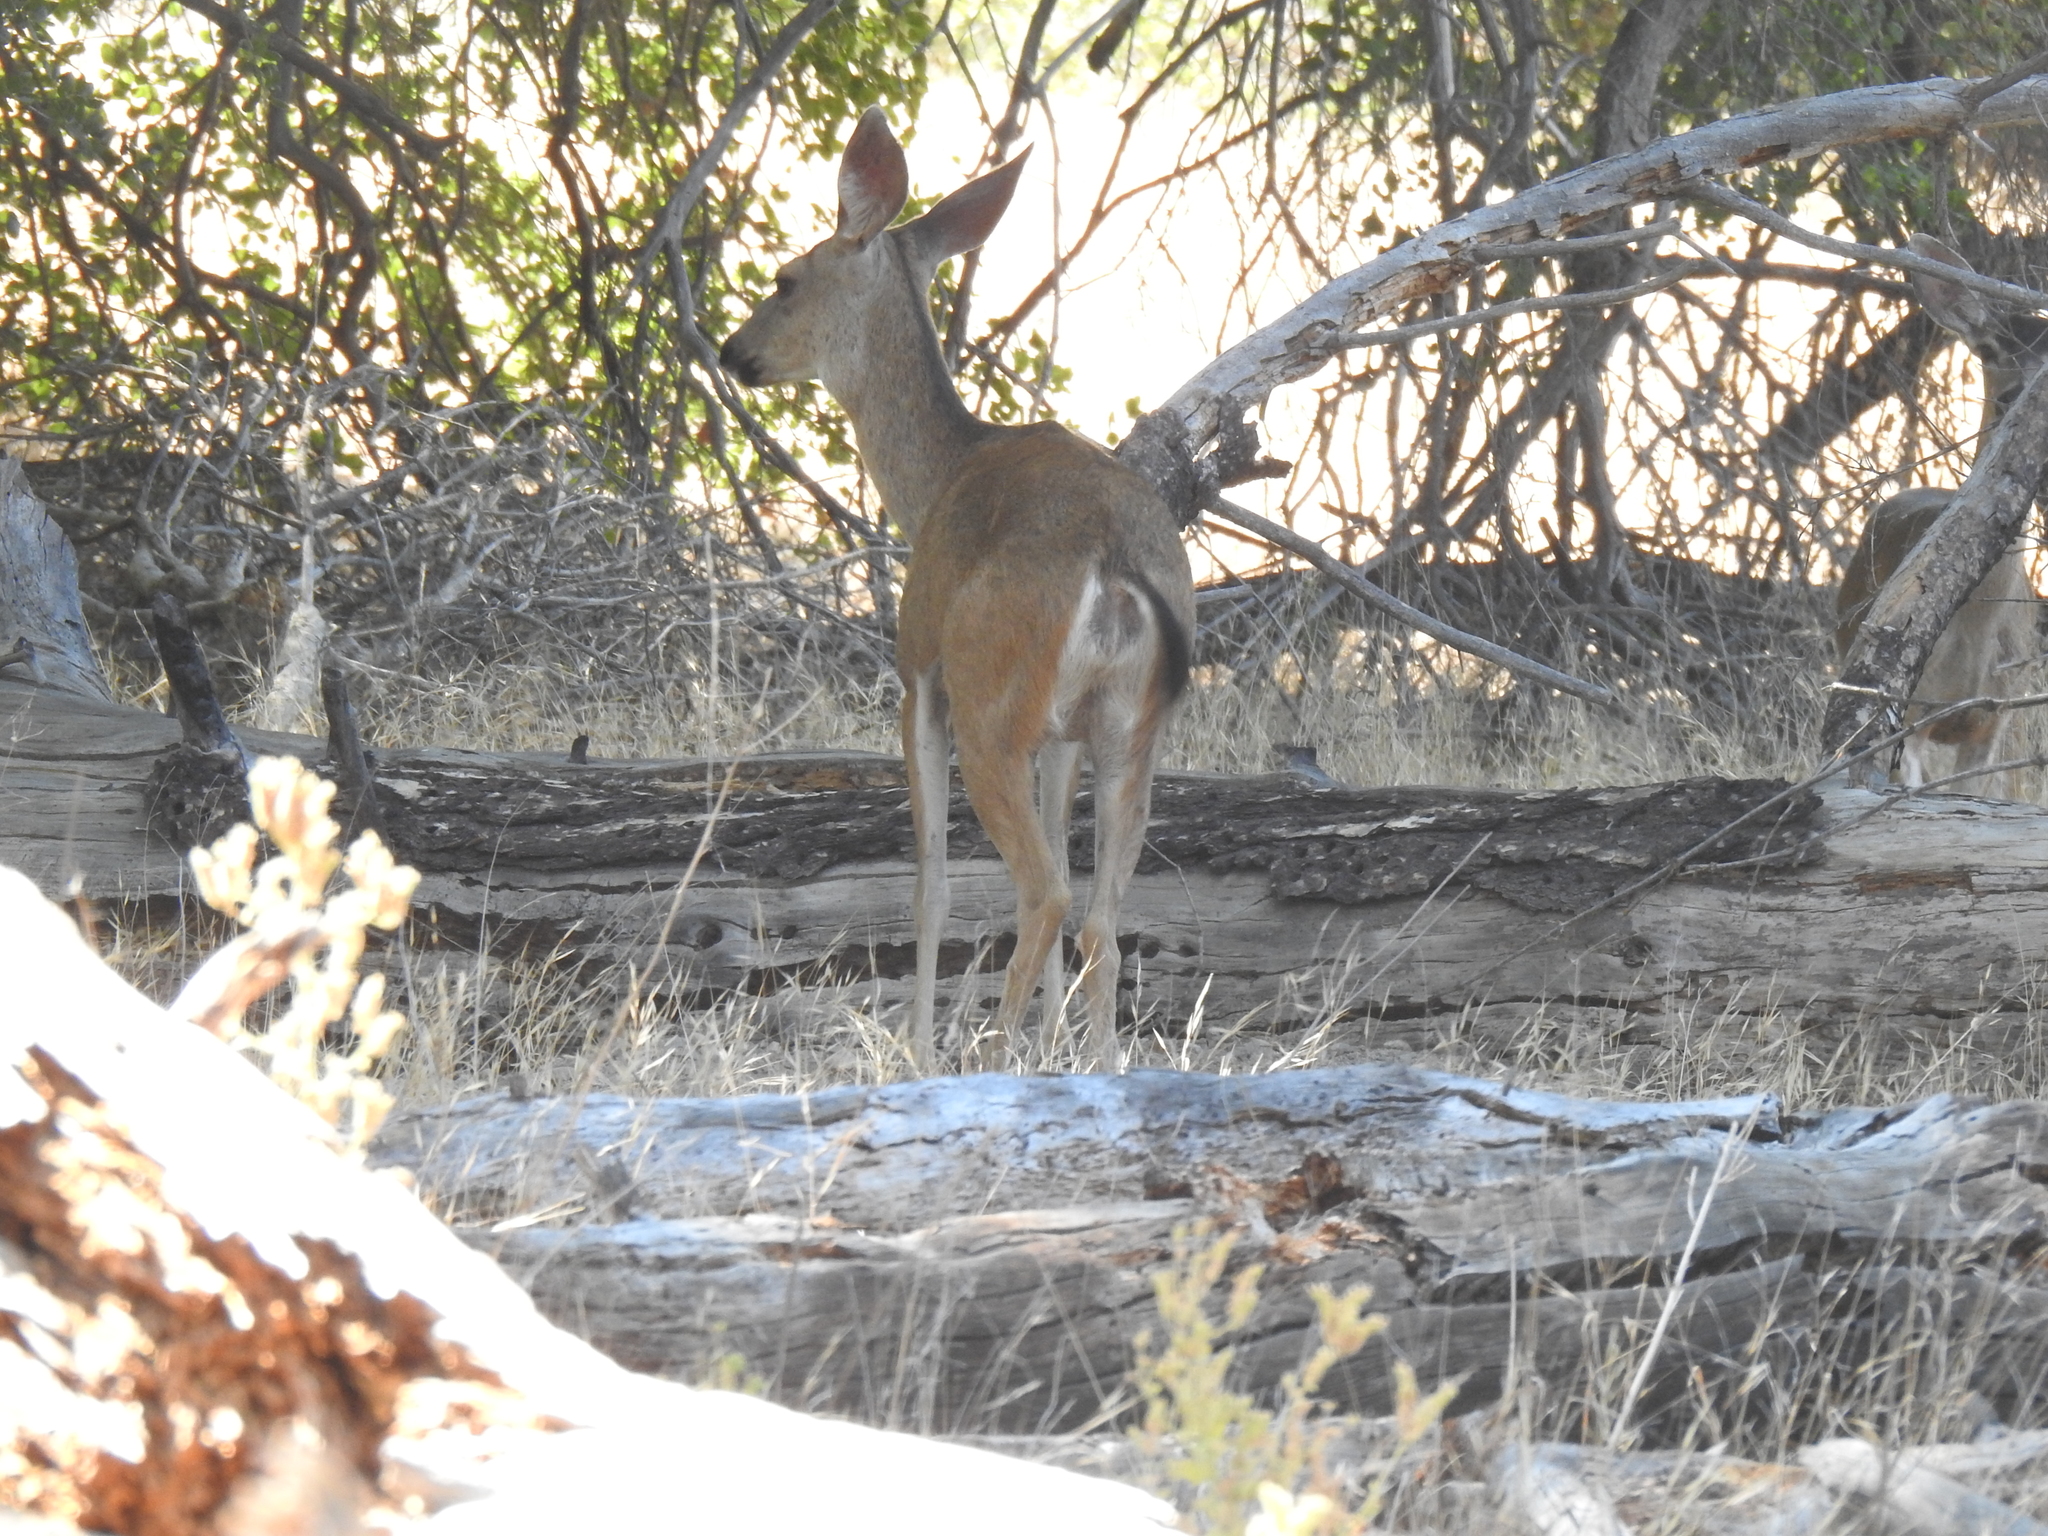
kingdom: Animalia
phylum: Chordata
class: Mammalia
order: Artiodactyla
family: Cervidae
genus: Odocoileus
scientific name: Odocoileus hemionus
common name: Mule deer
